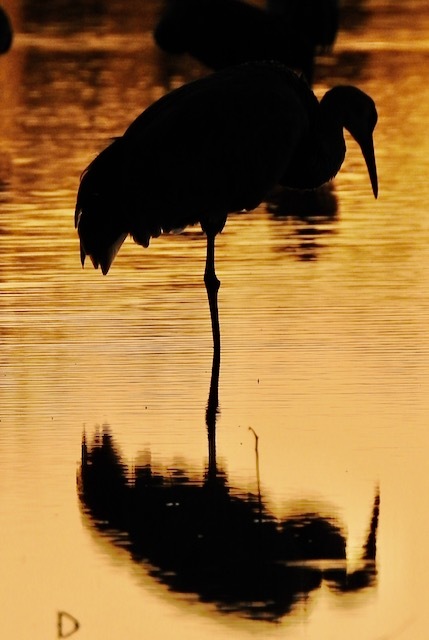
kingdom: Animalia
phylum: Chordata
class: Aves
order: Gruiformes
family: Gruidae
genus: Grus
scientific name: Grus canadensis
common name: Sandhill crane
